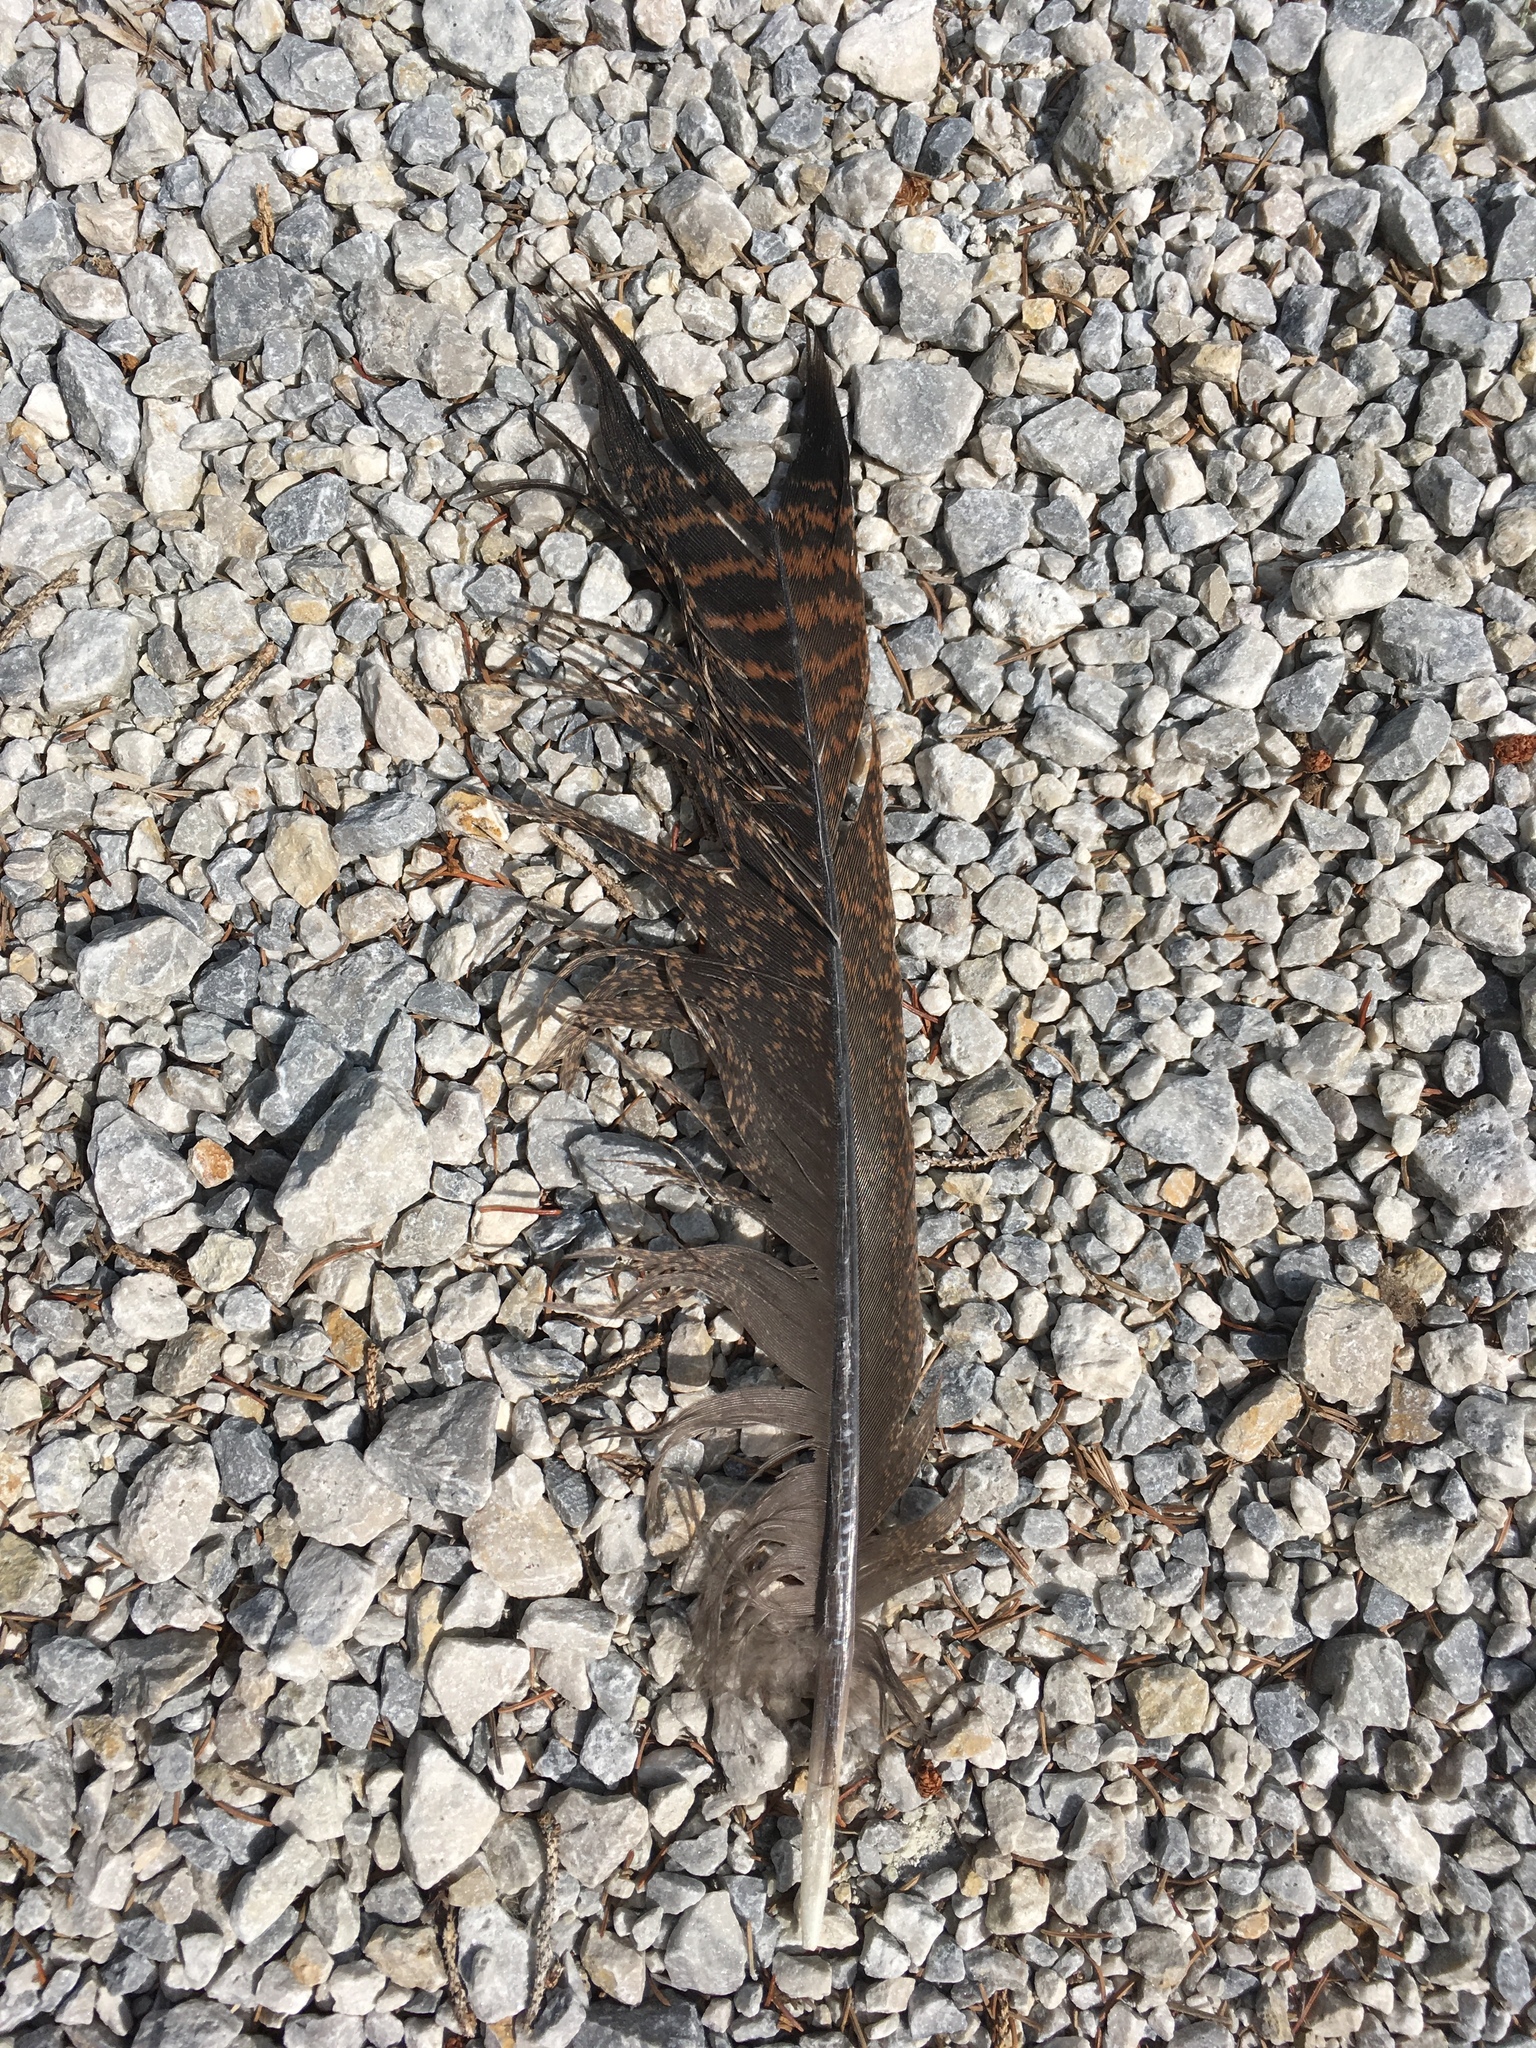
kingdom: Animalia
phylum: Chordata
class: Aves
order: Galliformes
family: Phasianidae
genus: Meleagris
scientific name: Meleagris gallopavo
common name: Wild turkey
